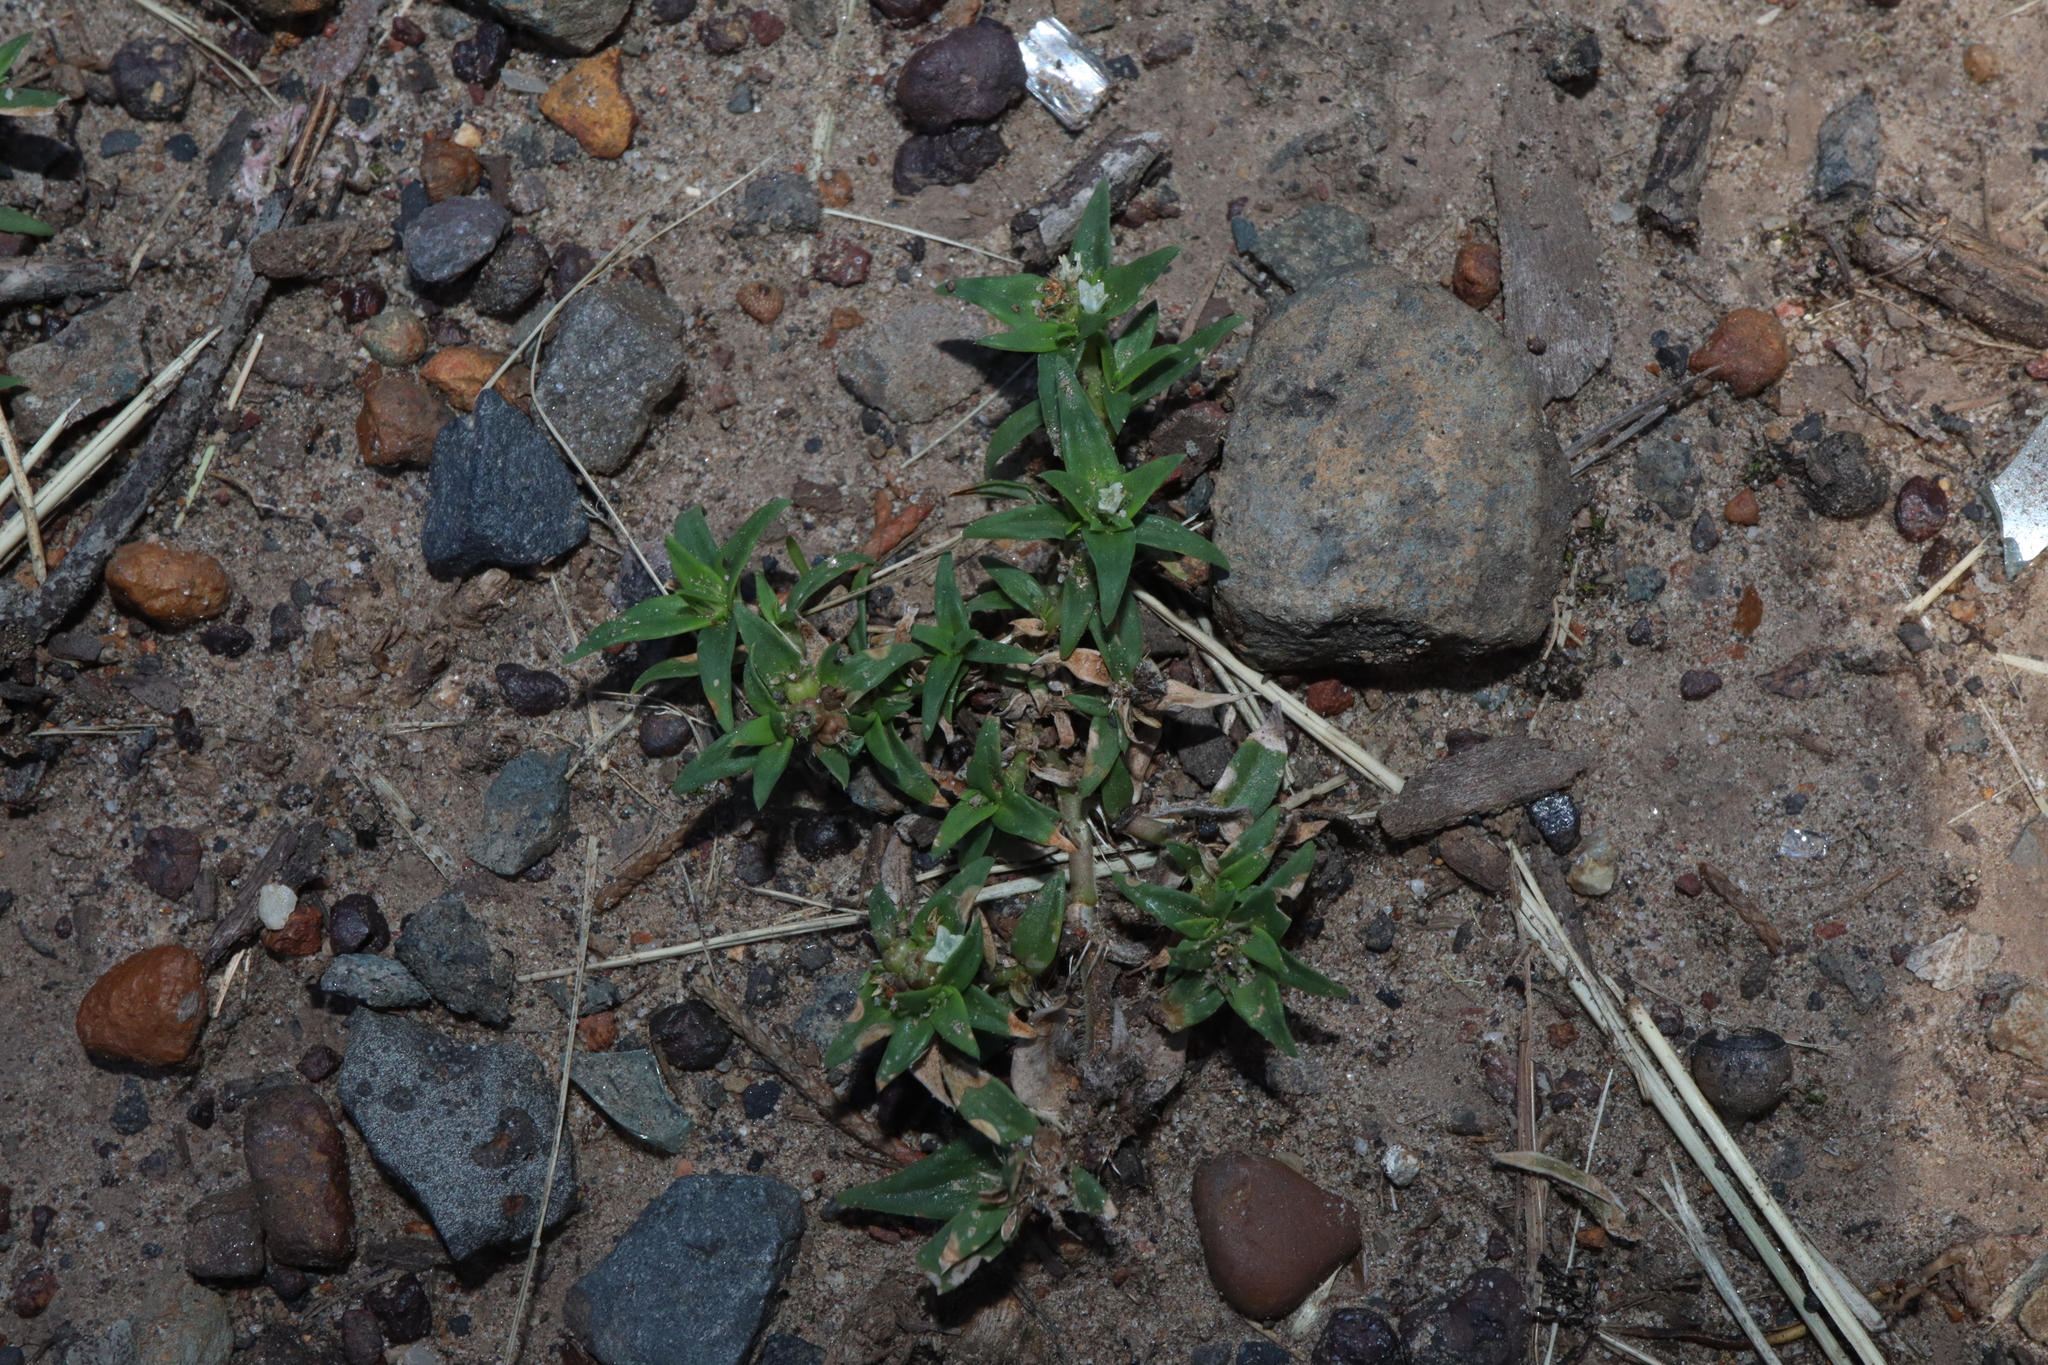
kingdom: Plantae
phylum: Tracheophyta
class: Magnoliopsida
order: Gentianales
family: Rubiaceae
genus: Richardia
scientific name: Richardia stellaris
